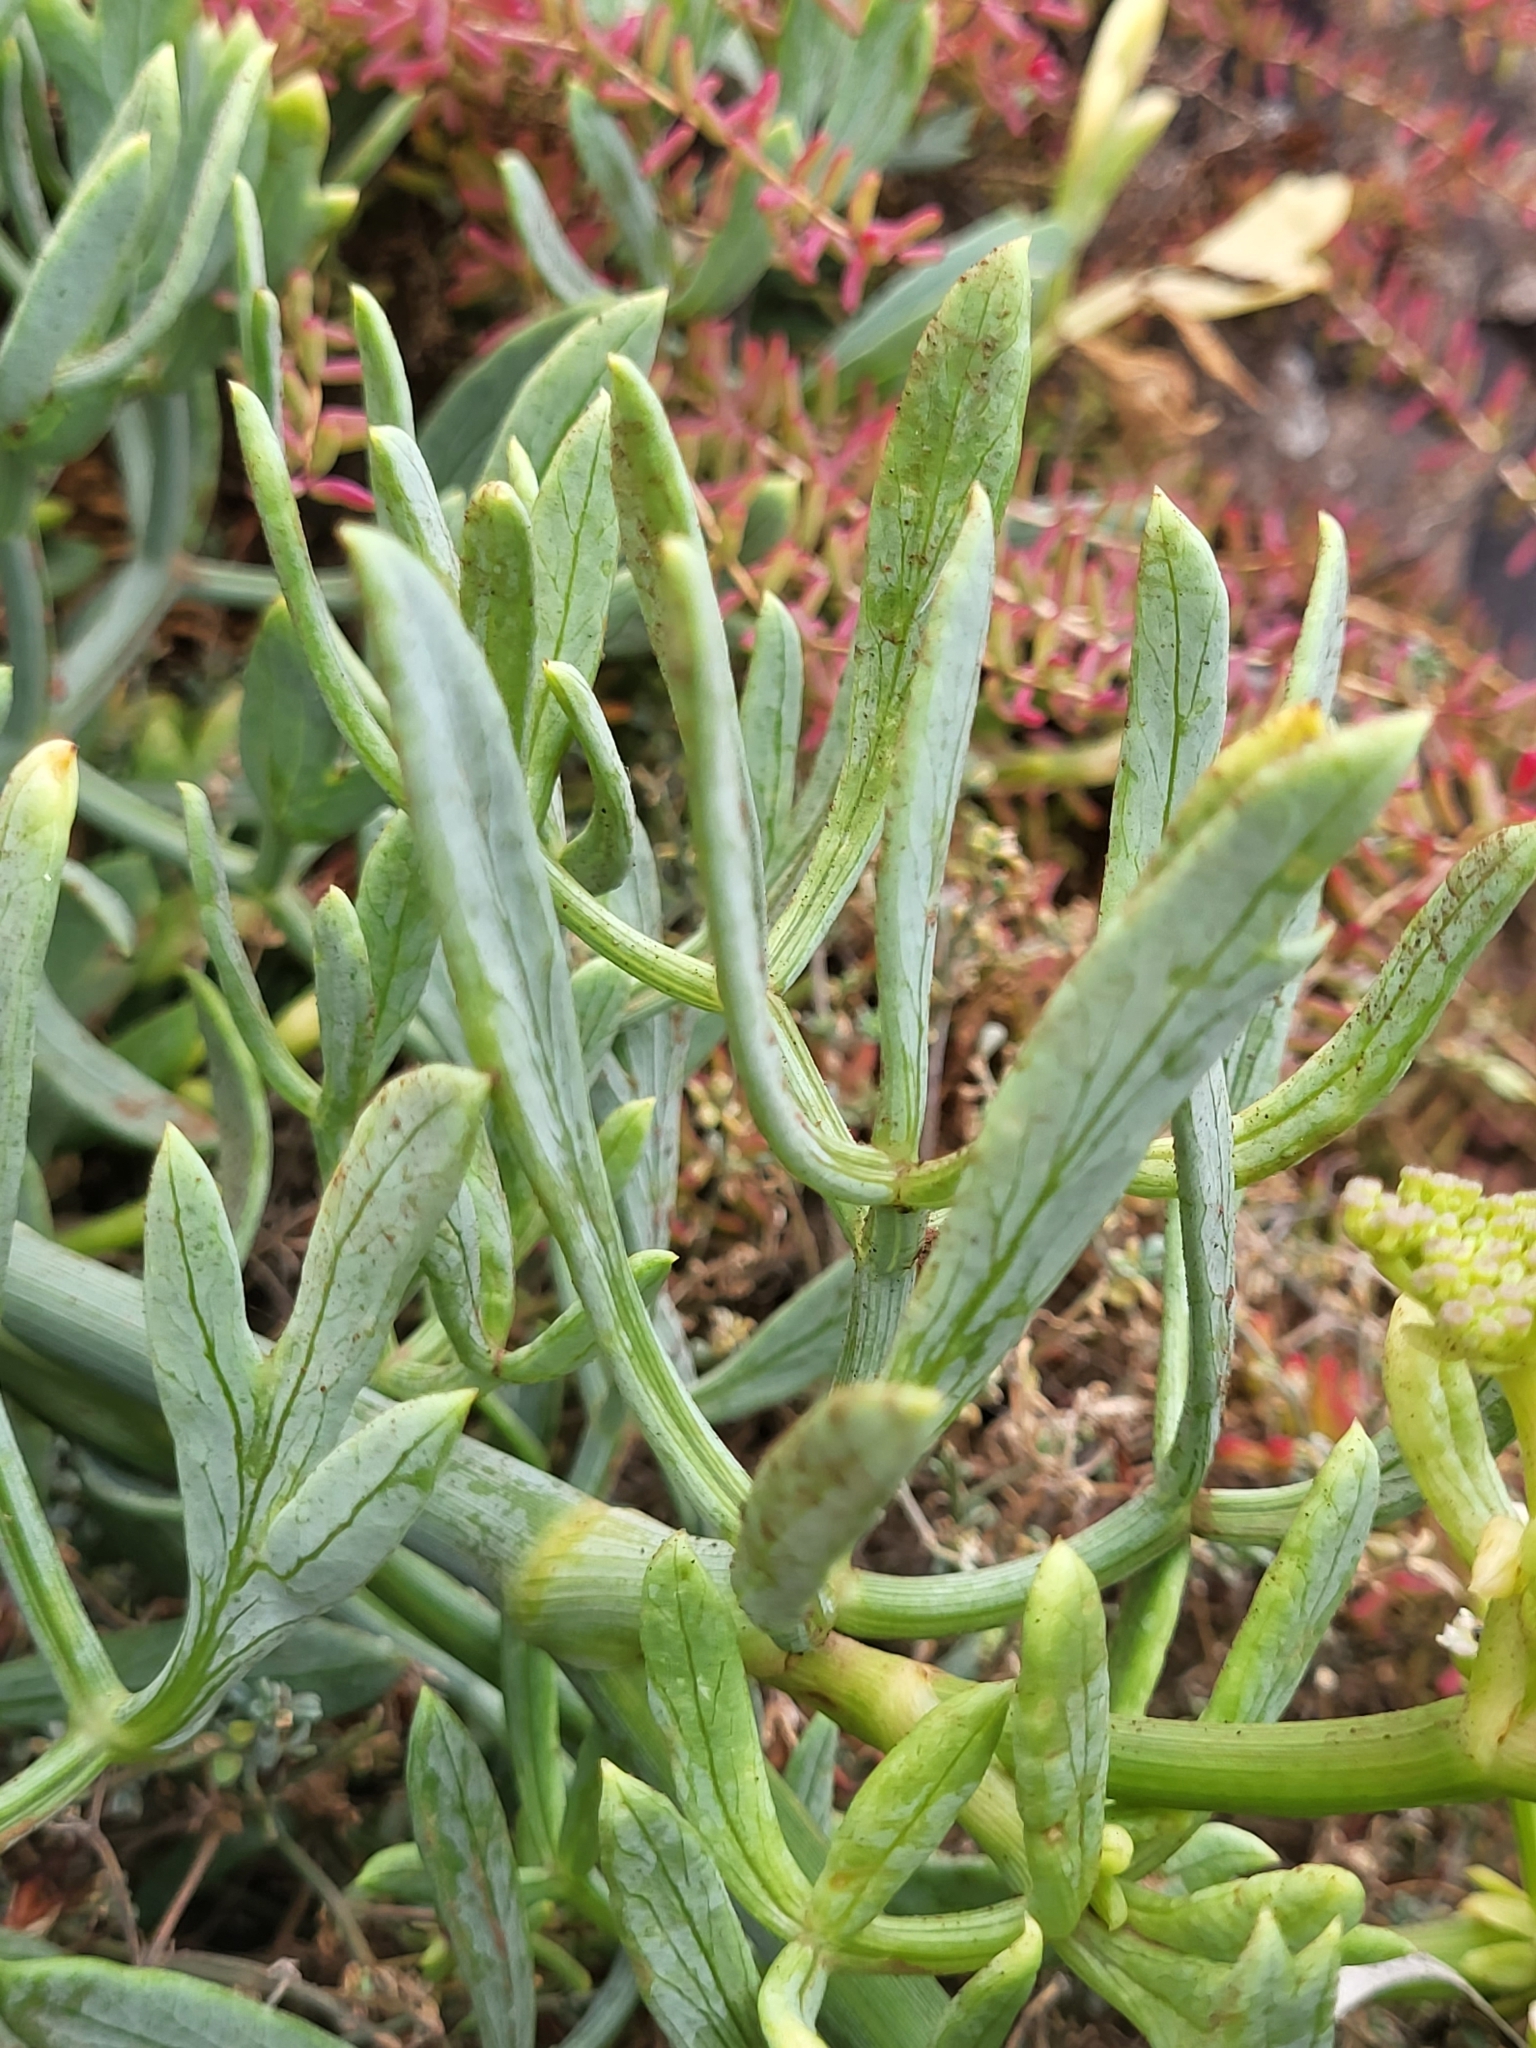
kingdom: Plantae
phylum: Tracheophyta
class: Magnoliopsida
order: Apiales
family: Apiaceae
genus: Crithmum
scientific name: Crithmum maritimum
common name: Rock samphire
